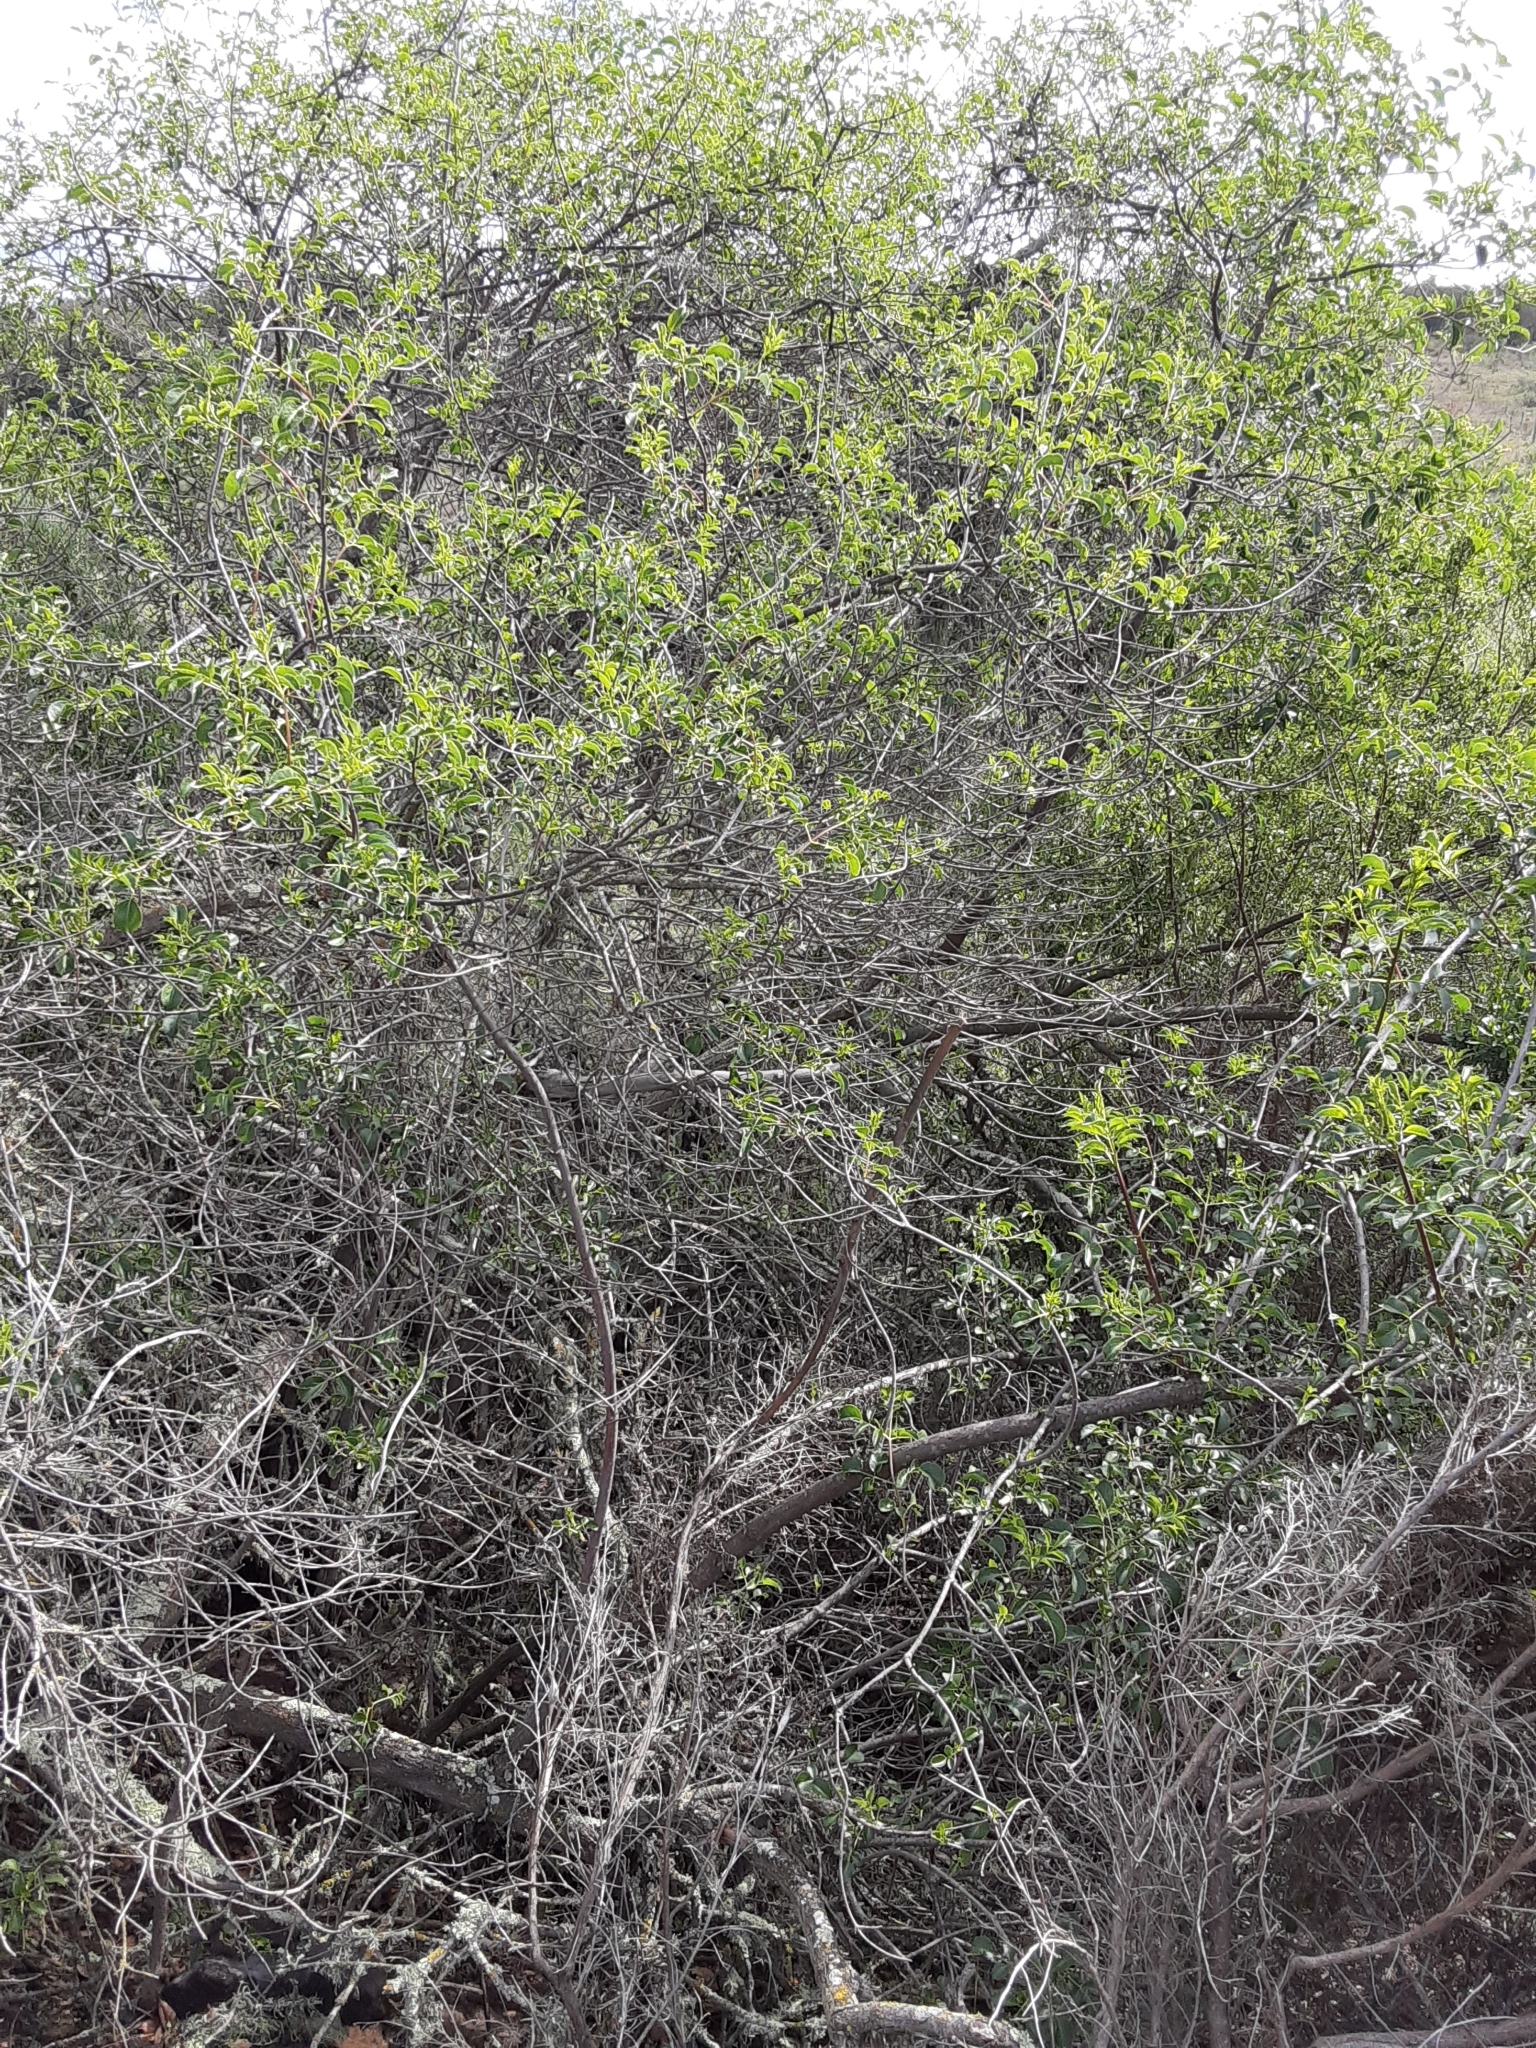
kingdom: Plantae
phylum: Tracheophyta
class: Magnoliopsida
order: Dipsacales
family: Viburnaceae
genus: Sambucus
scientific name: Sambucus cerulea
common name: Blue elder
